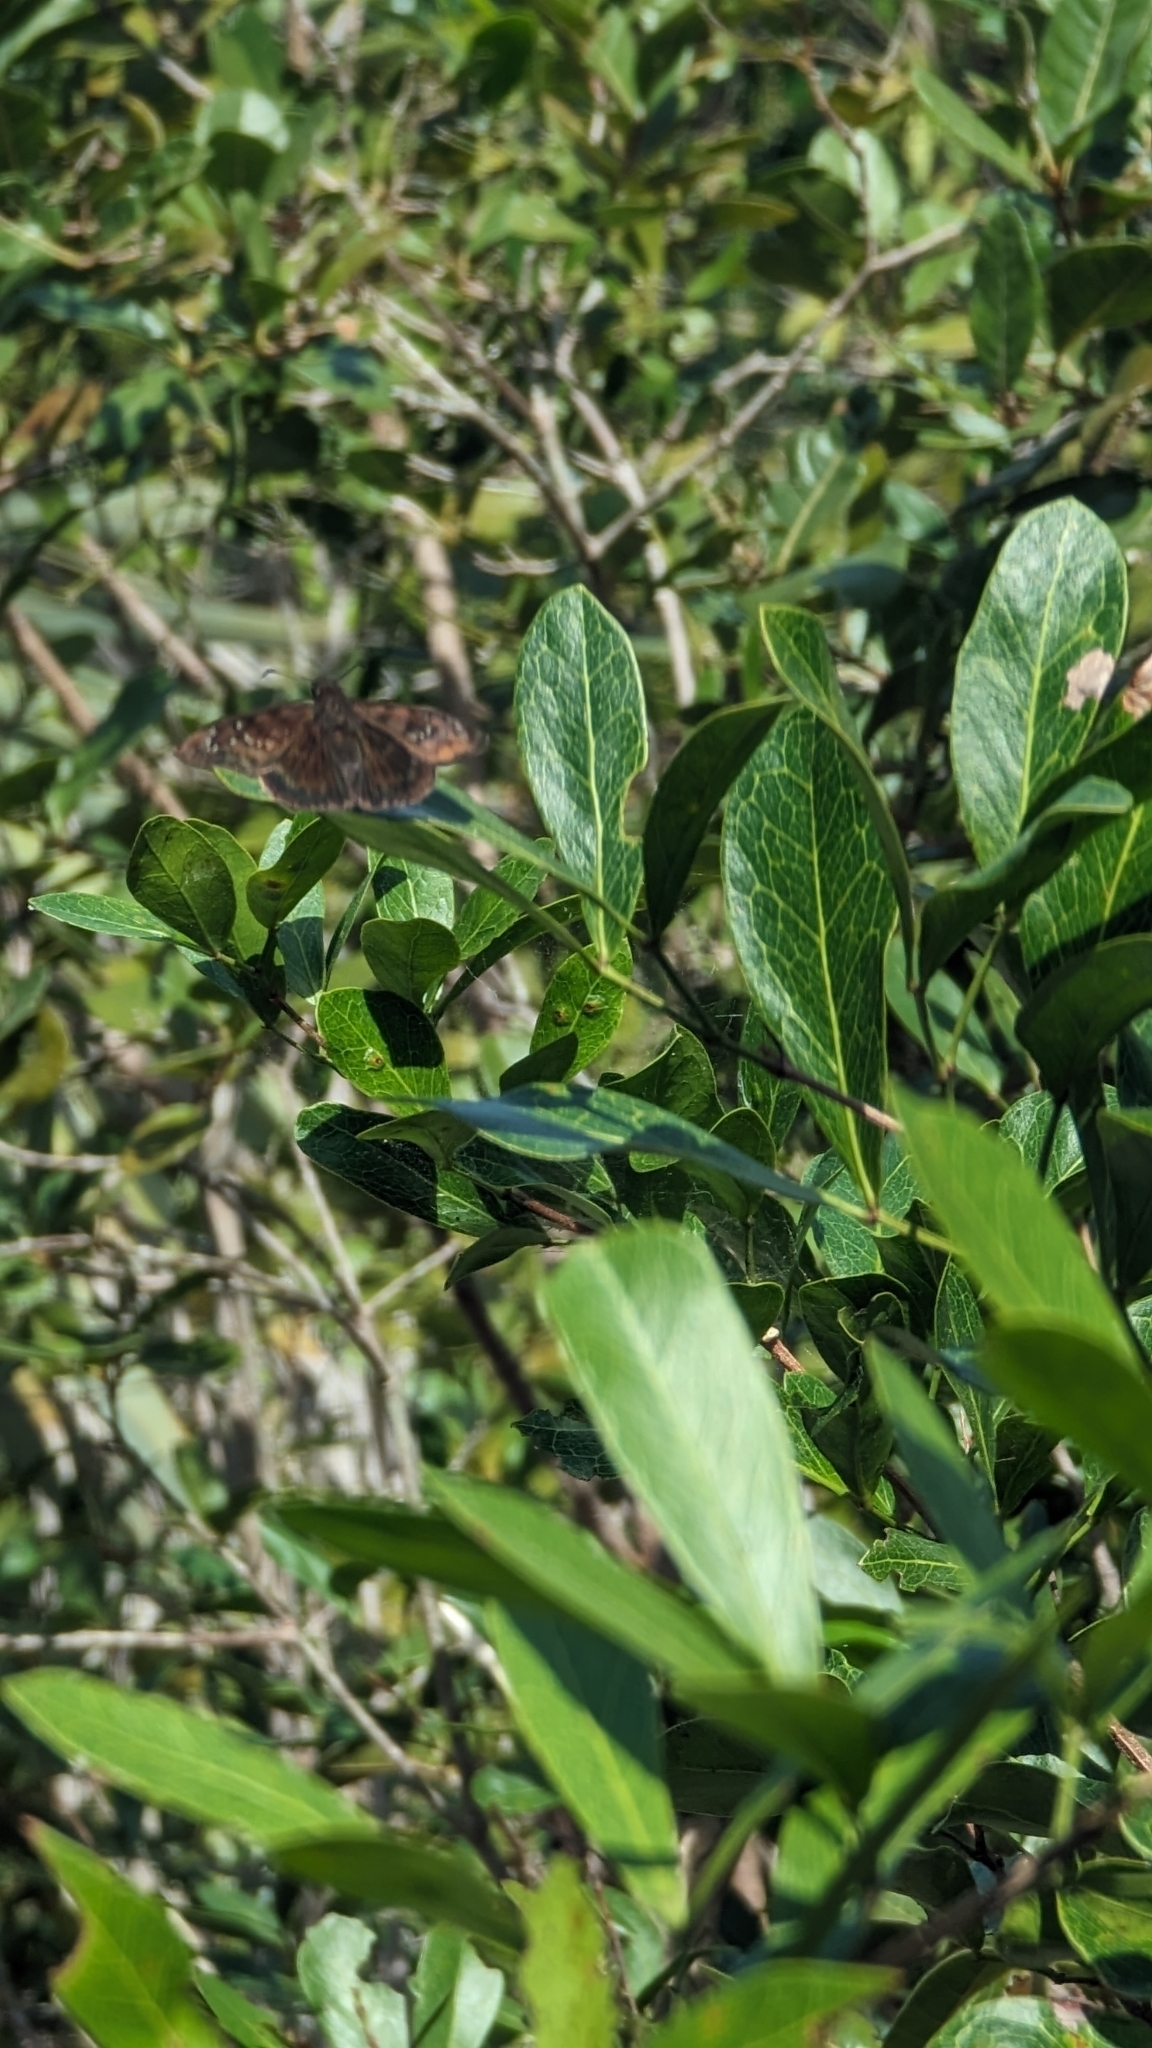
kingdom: Animalia
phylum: Arthropoda
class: Insecta
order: Lepidoptera
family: Hesperiidae
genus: Ephyriades
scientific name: Ephyriades brunnea
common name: Florida duskywing
